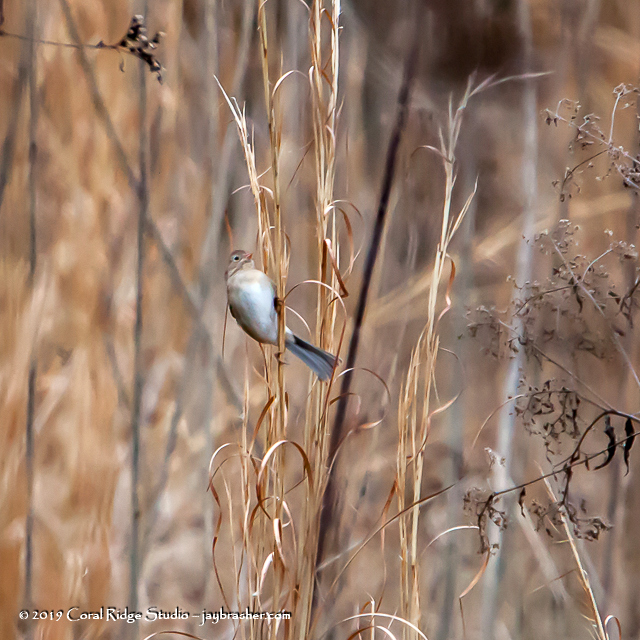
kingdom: Animalia
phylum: Chordata
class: Aves
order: Passeriformes
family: Passerellidae
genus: Spizella
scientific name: Spizella pusilla
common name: Field sparrow
